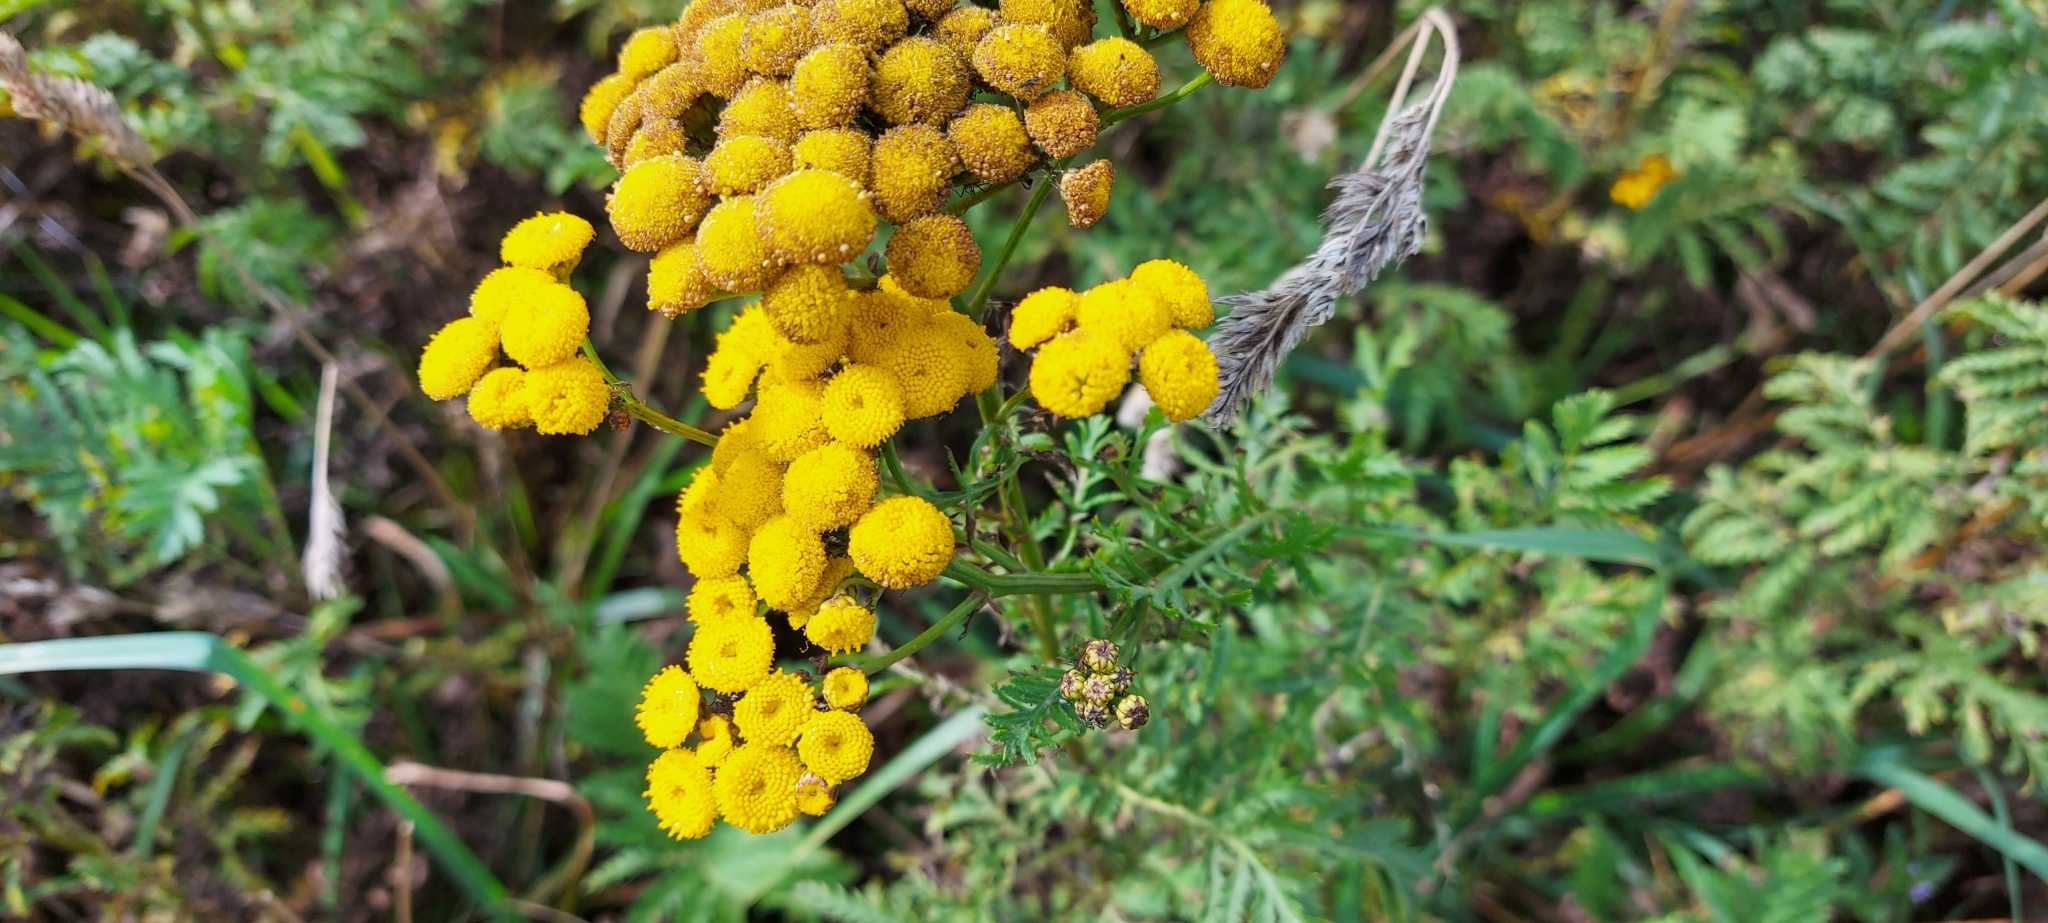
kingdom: Plantae
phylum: Tracheophyta
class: Magnoliopsida
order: Asterales
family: Asteraceae
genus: Tanacetum
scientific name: Tanacetum vulgare
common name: Common tansy
